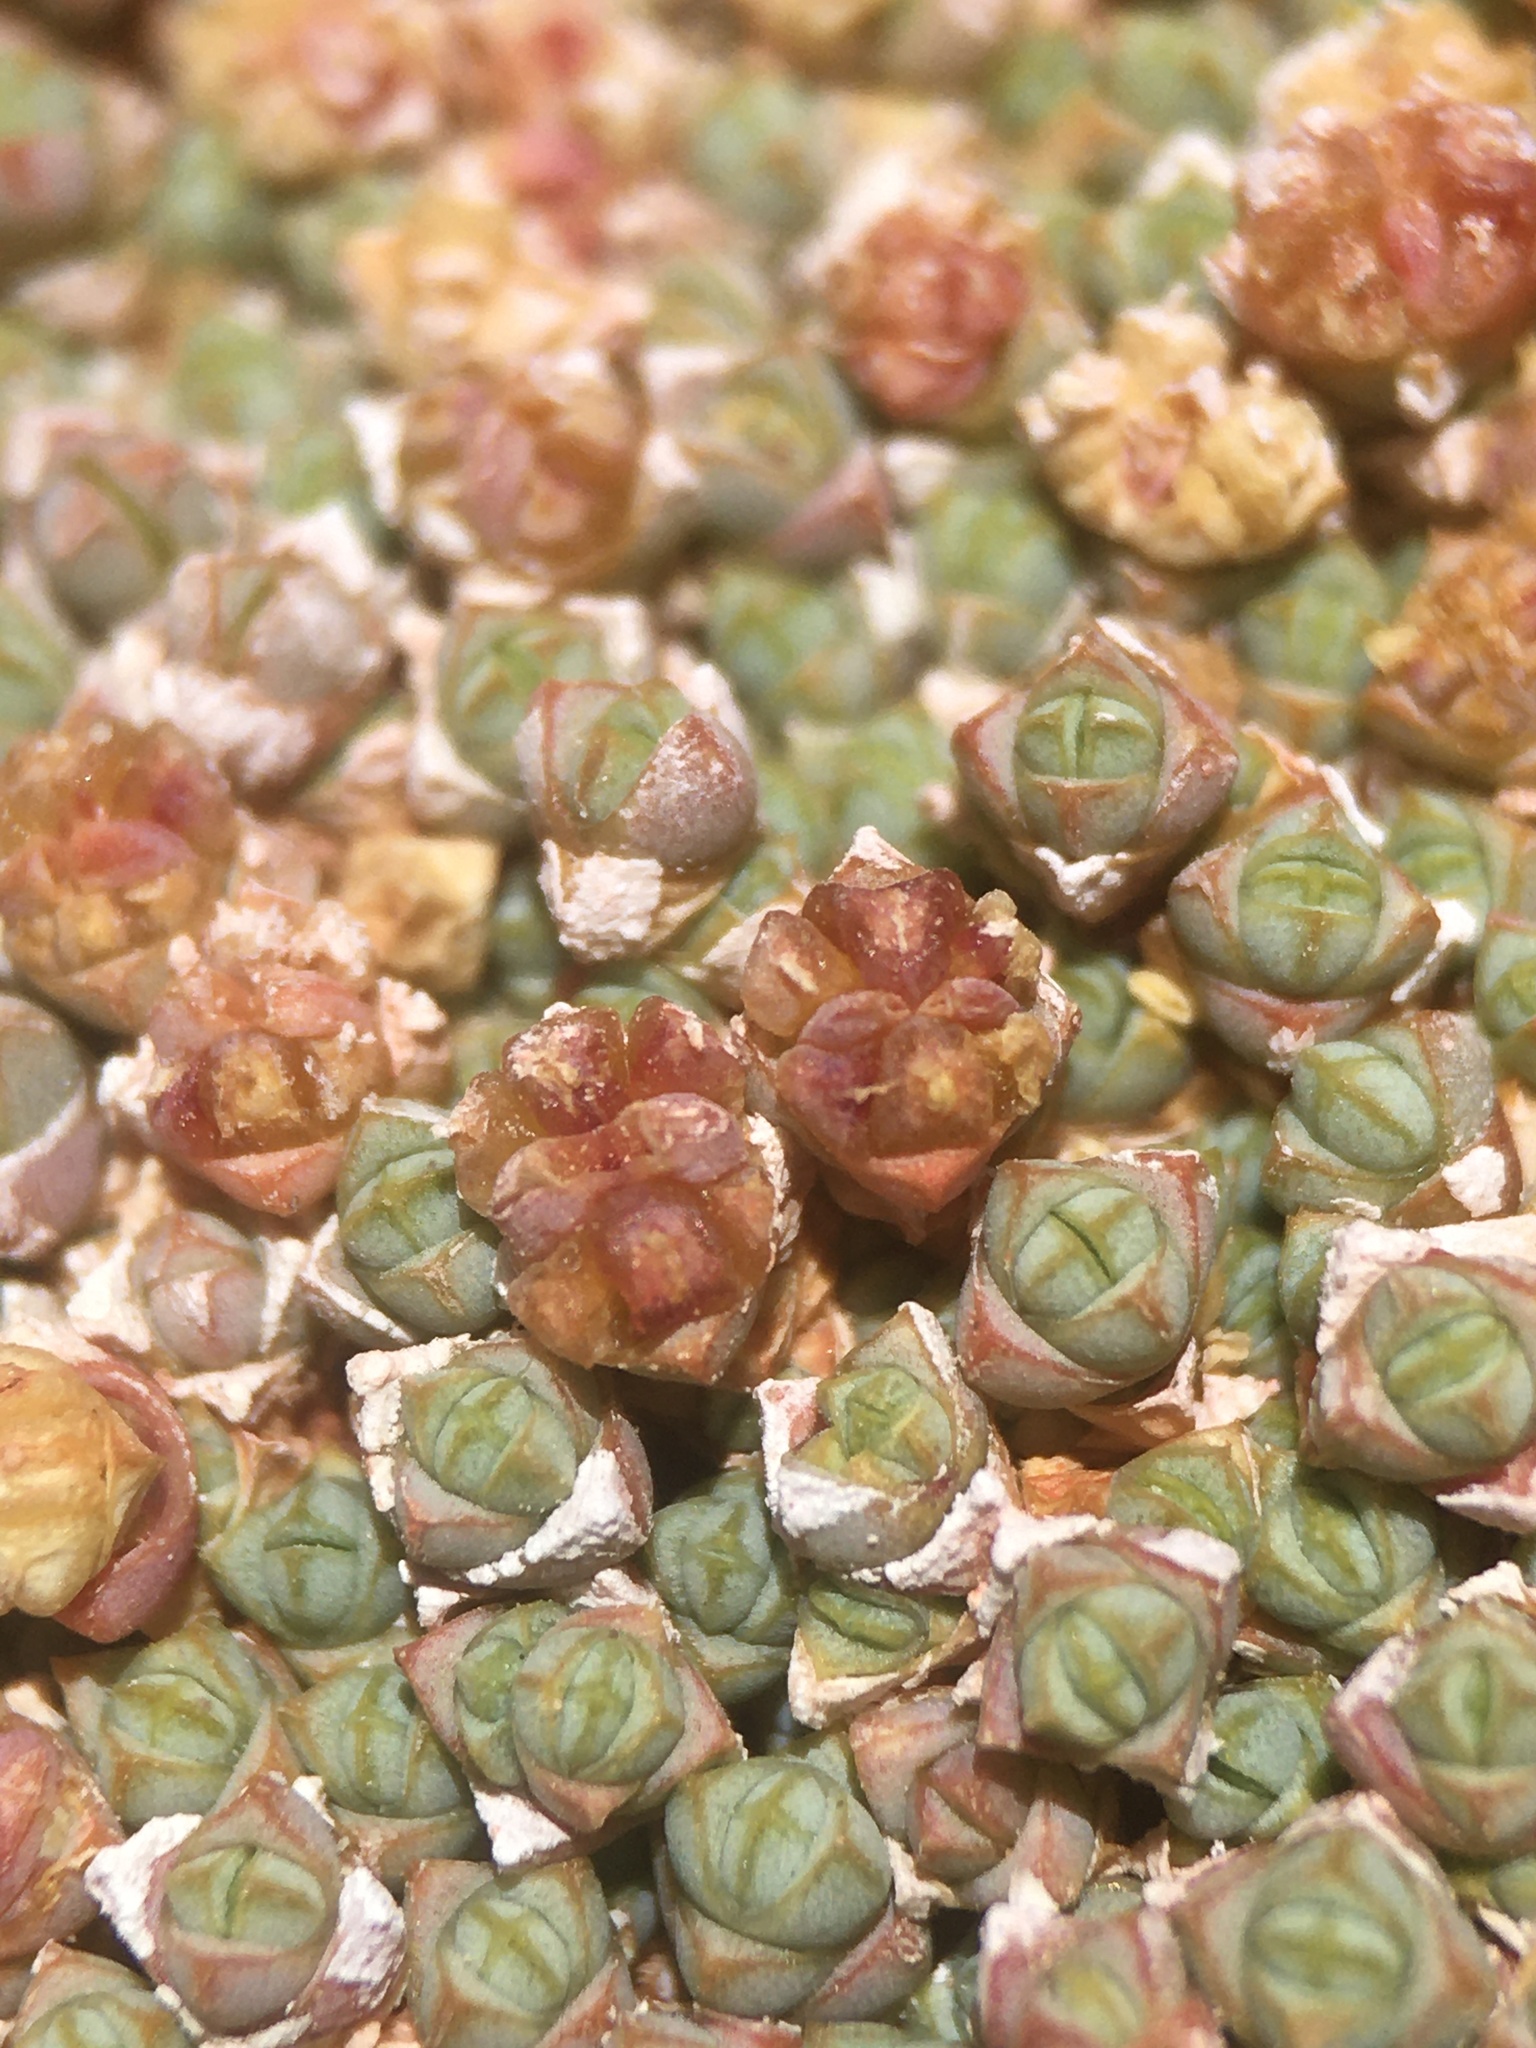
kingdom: Plantae
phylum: Tracheophyta
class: Magnoliopsida
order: Caryophyllales
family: Amaranthaceae
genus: Salicornia
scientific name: Salicornia pulvinata
